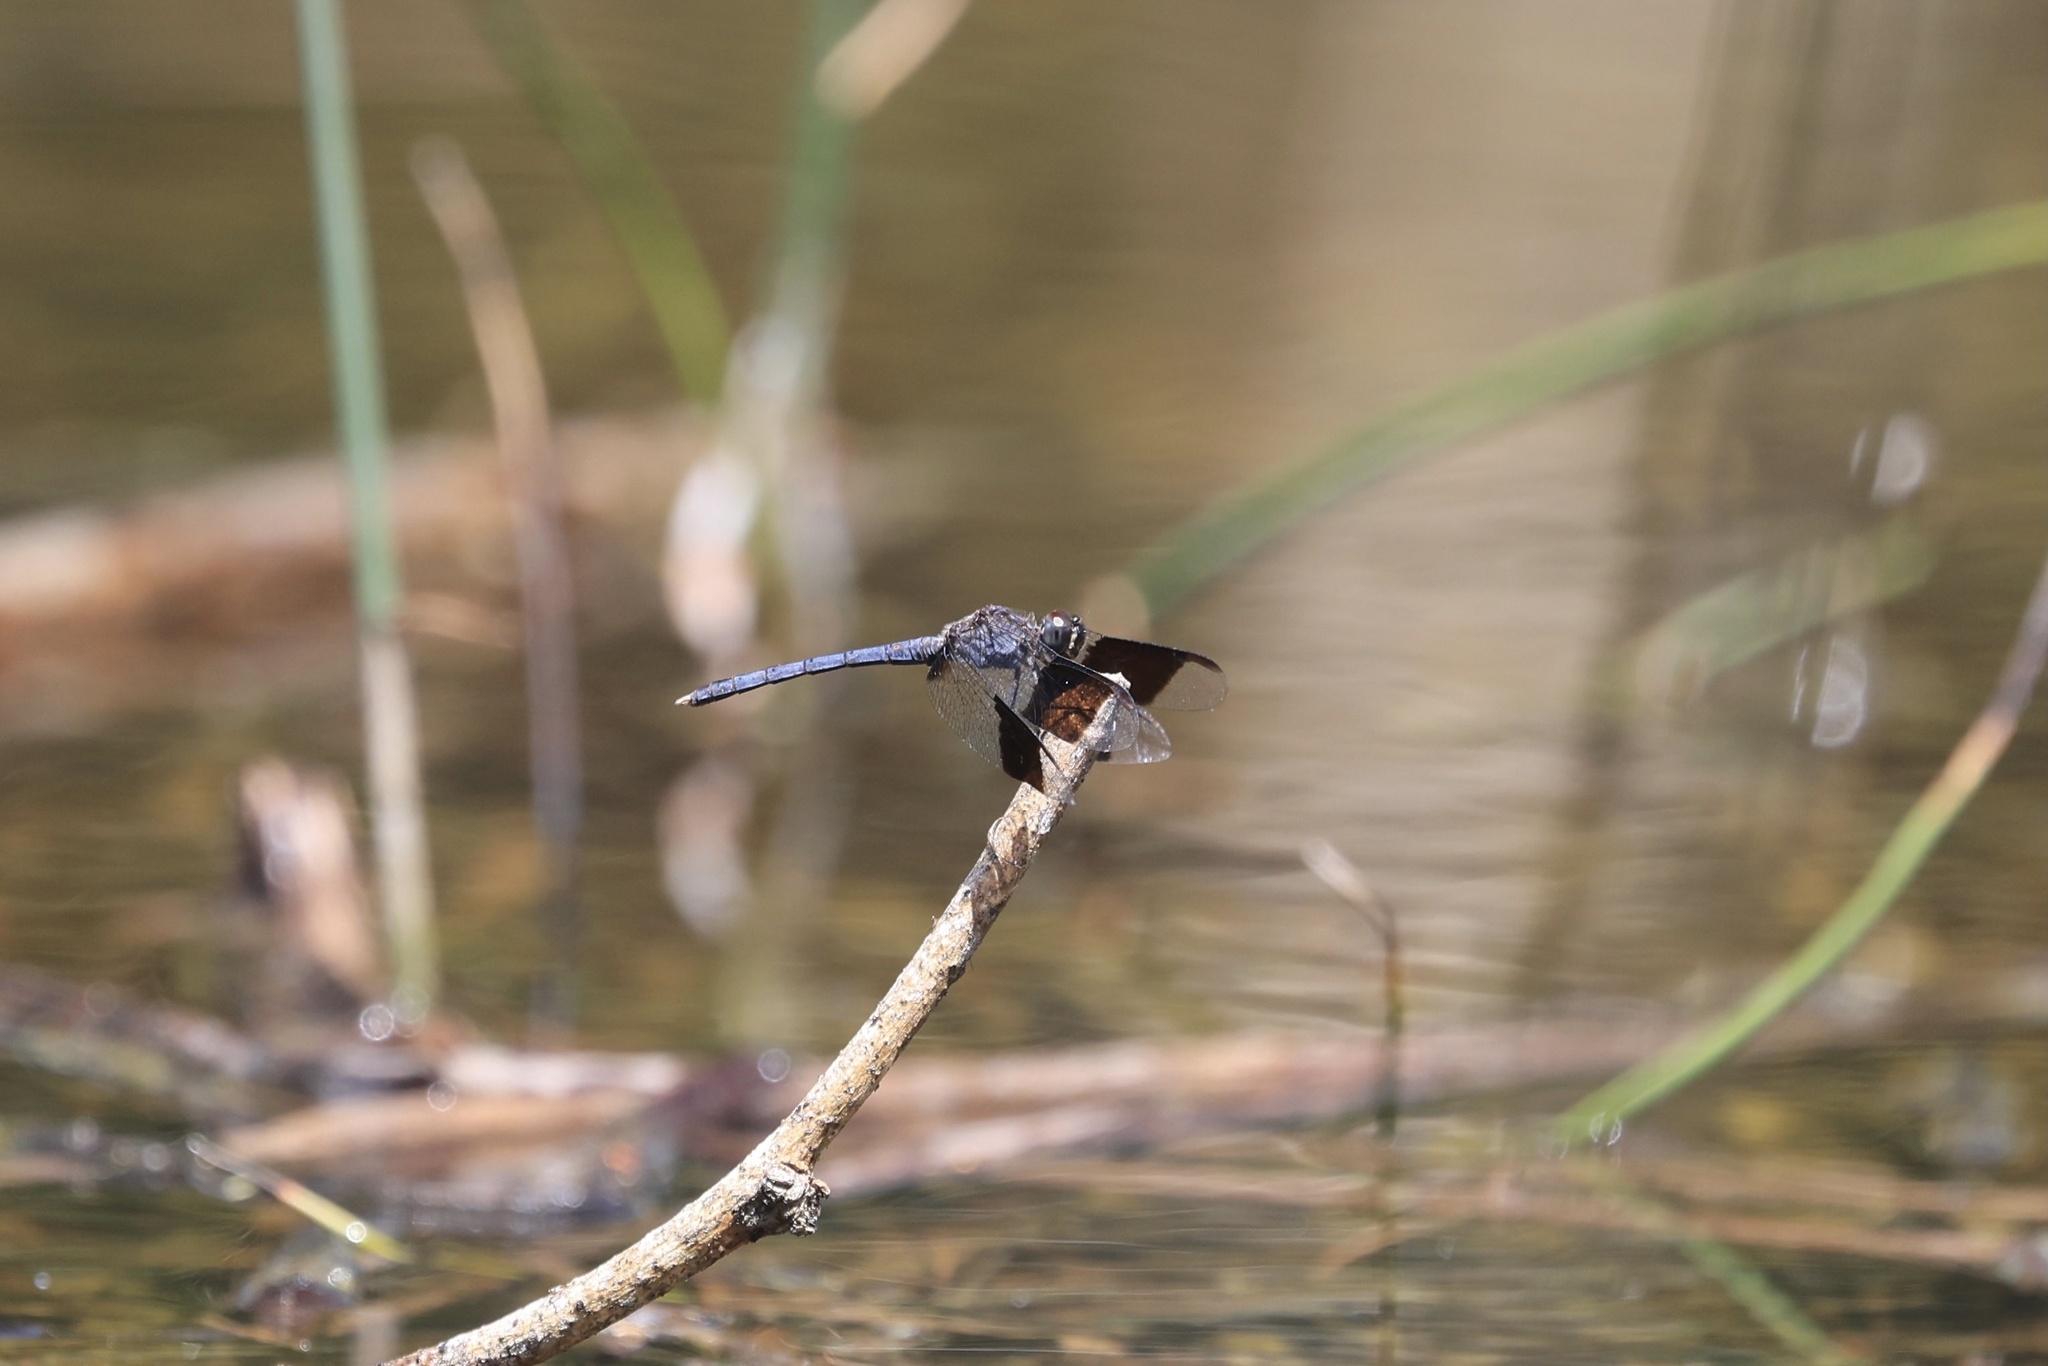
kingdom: Animalia
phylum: Arthropoda
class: Insecta
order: Odonata
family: Libellulidae
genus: Erythrodiplax
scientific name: Erythrodiplax umbrata
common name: Band-winged dragonlet
